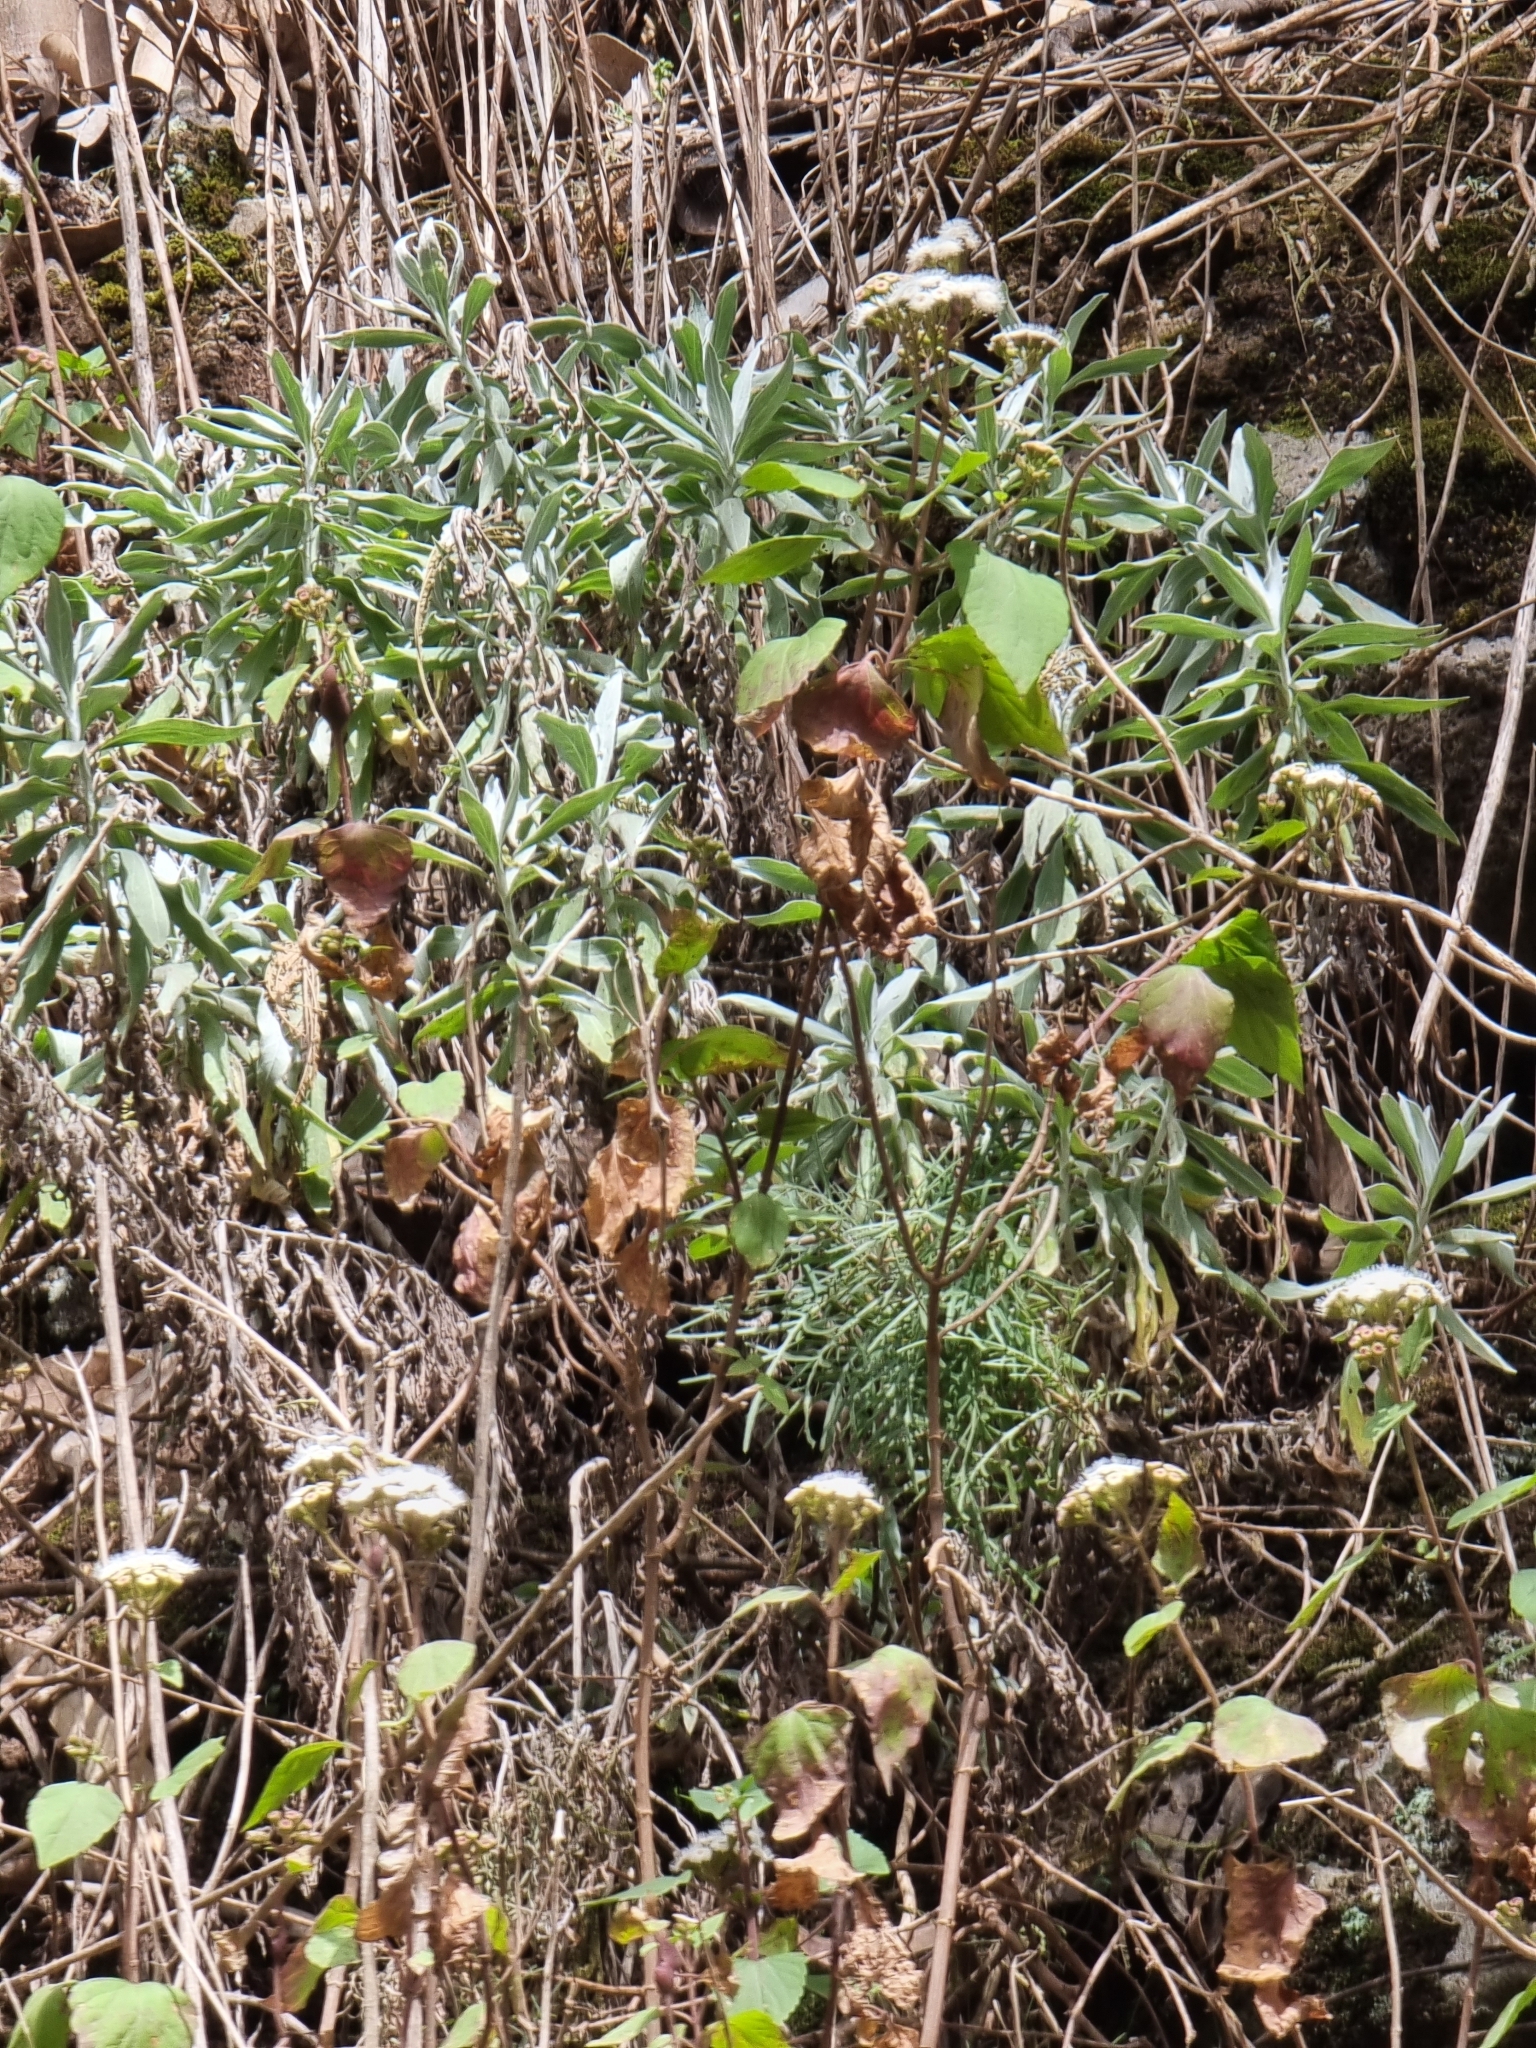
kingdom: Plantae
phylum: Tracheophyta
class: Magnoliopsida
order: Asterales
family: Asteraceae
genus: Helichrysum
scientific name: Helichrysum melaleucum
